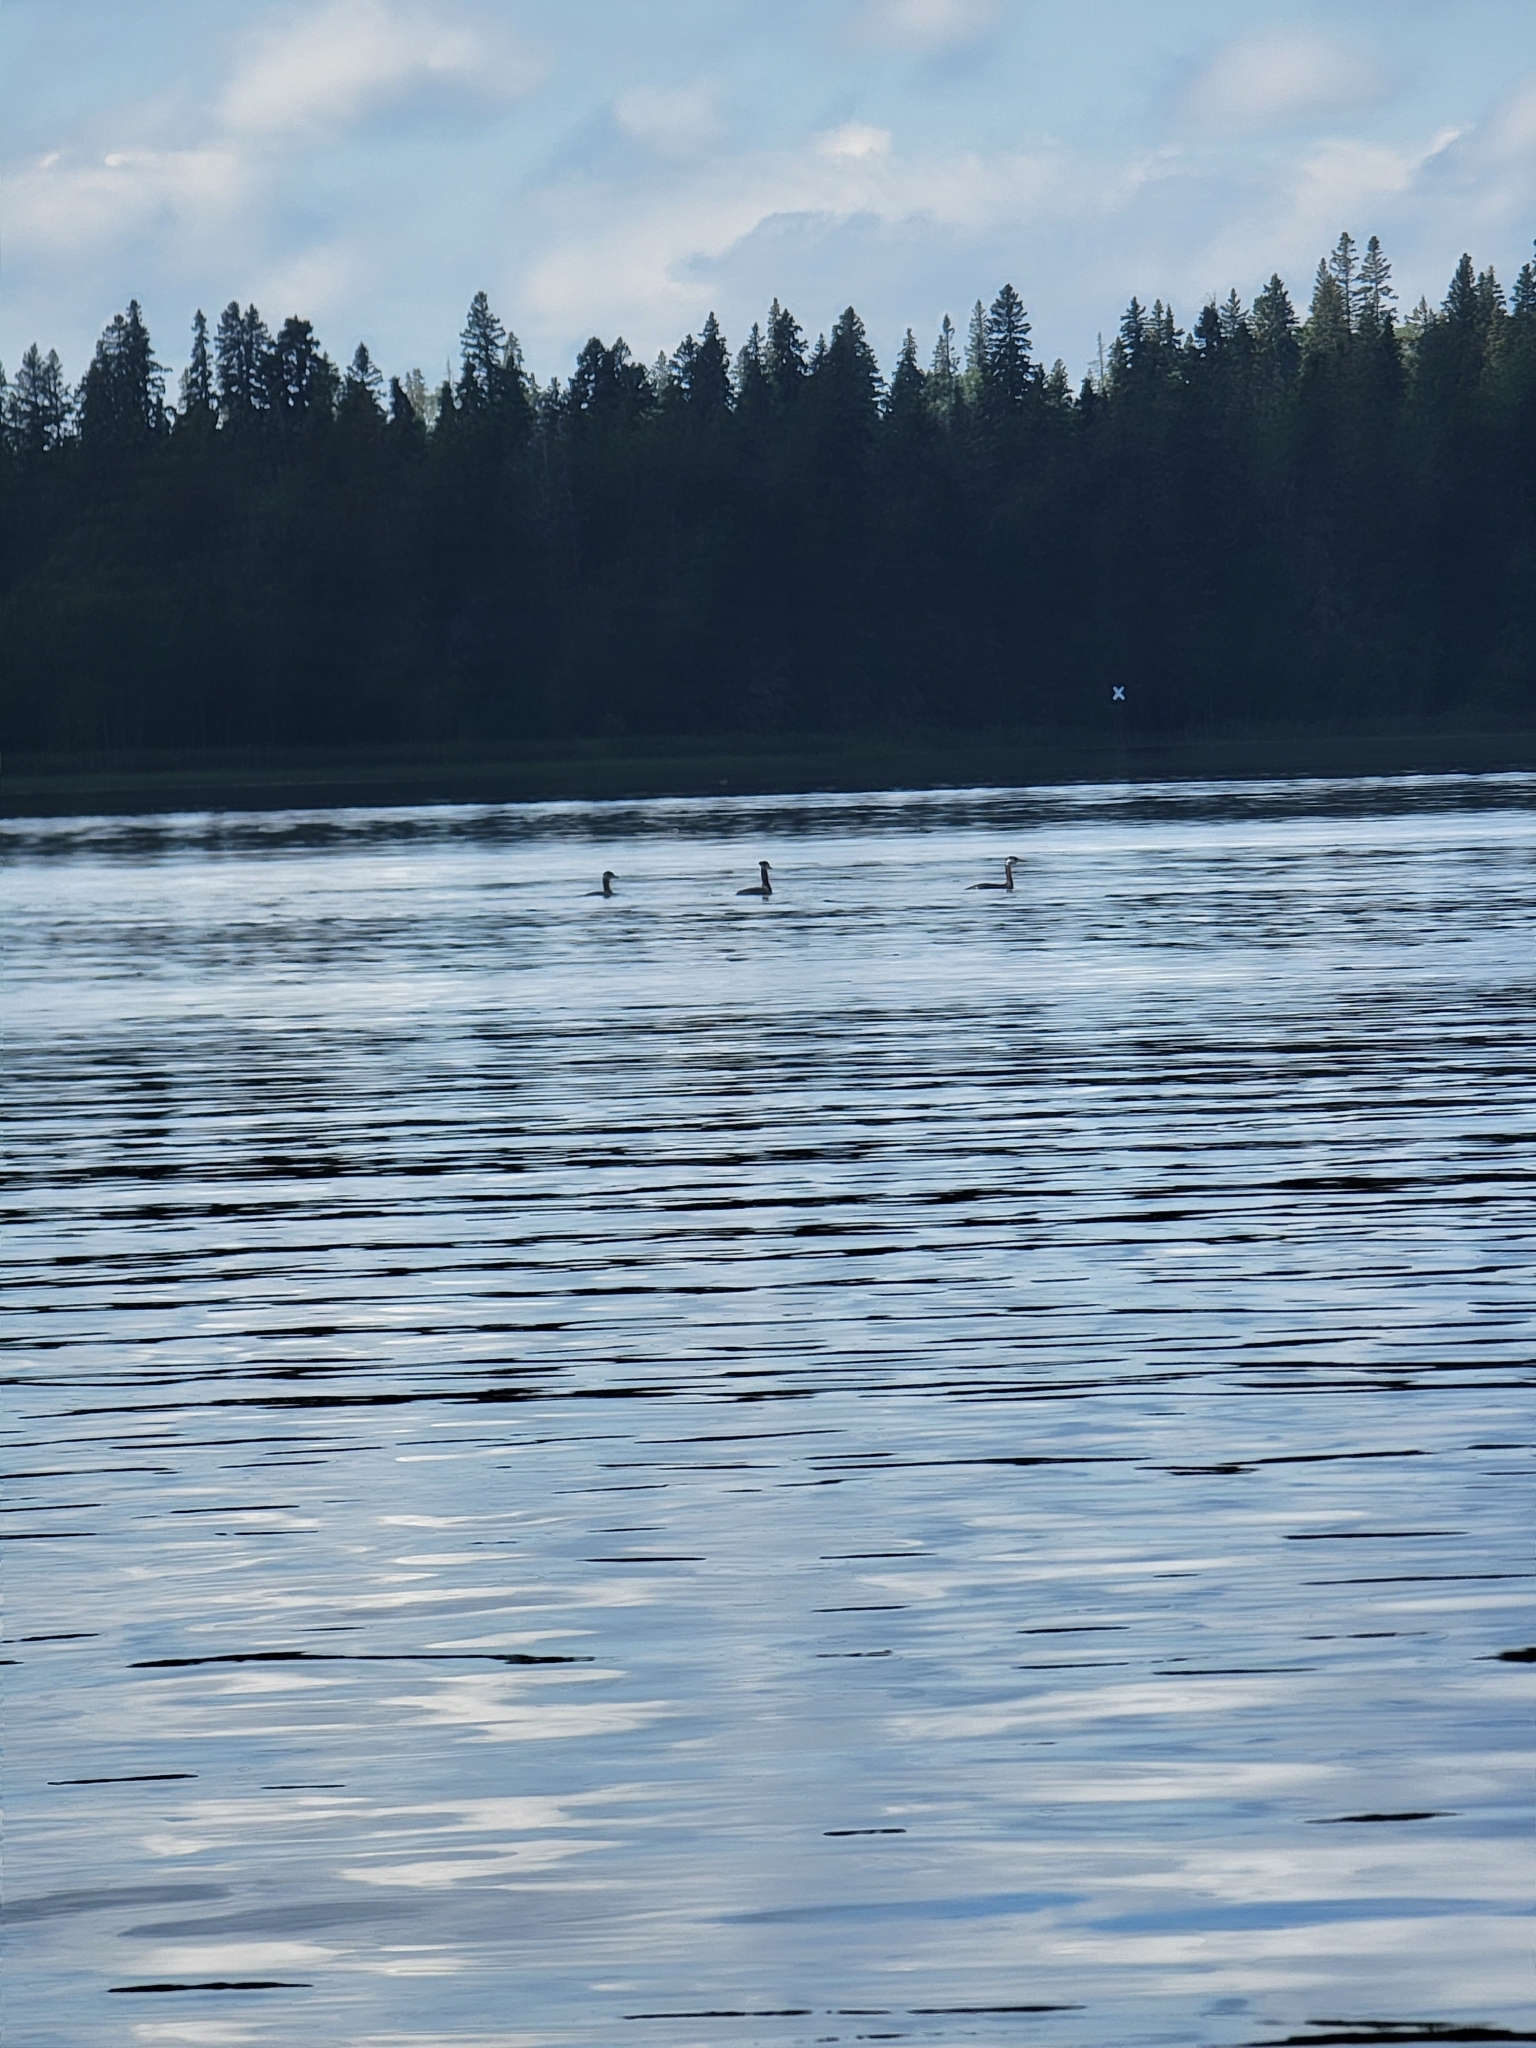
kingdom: Animalia
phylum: Chordata
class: Aves
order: Podicipediformes
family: Podicipedidae
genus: Podiceps
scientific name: Podiceps grisegena
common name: Red-necked grebe
